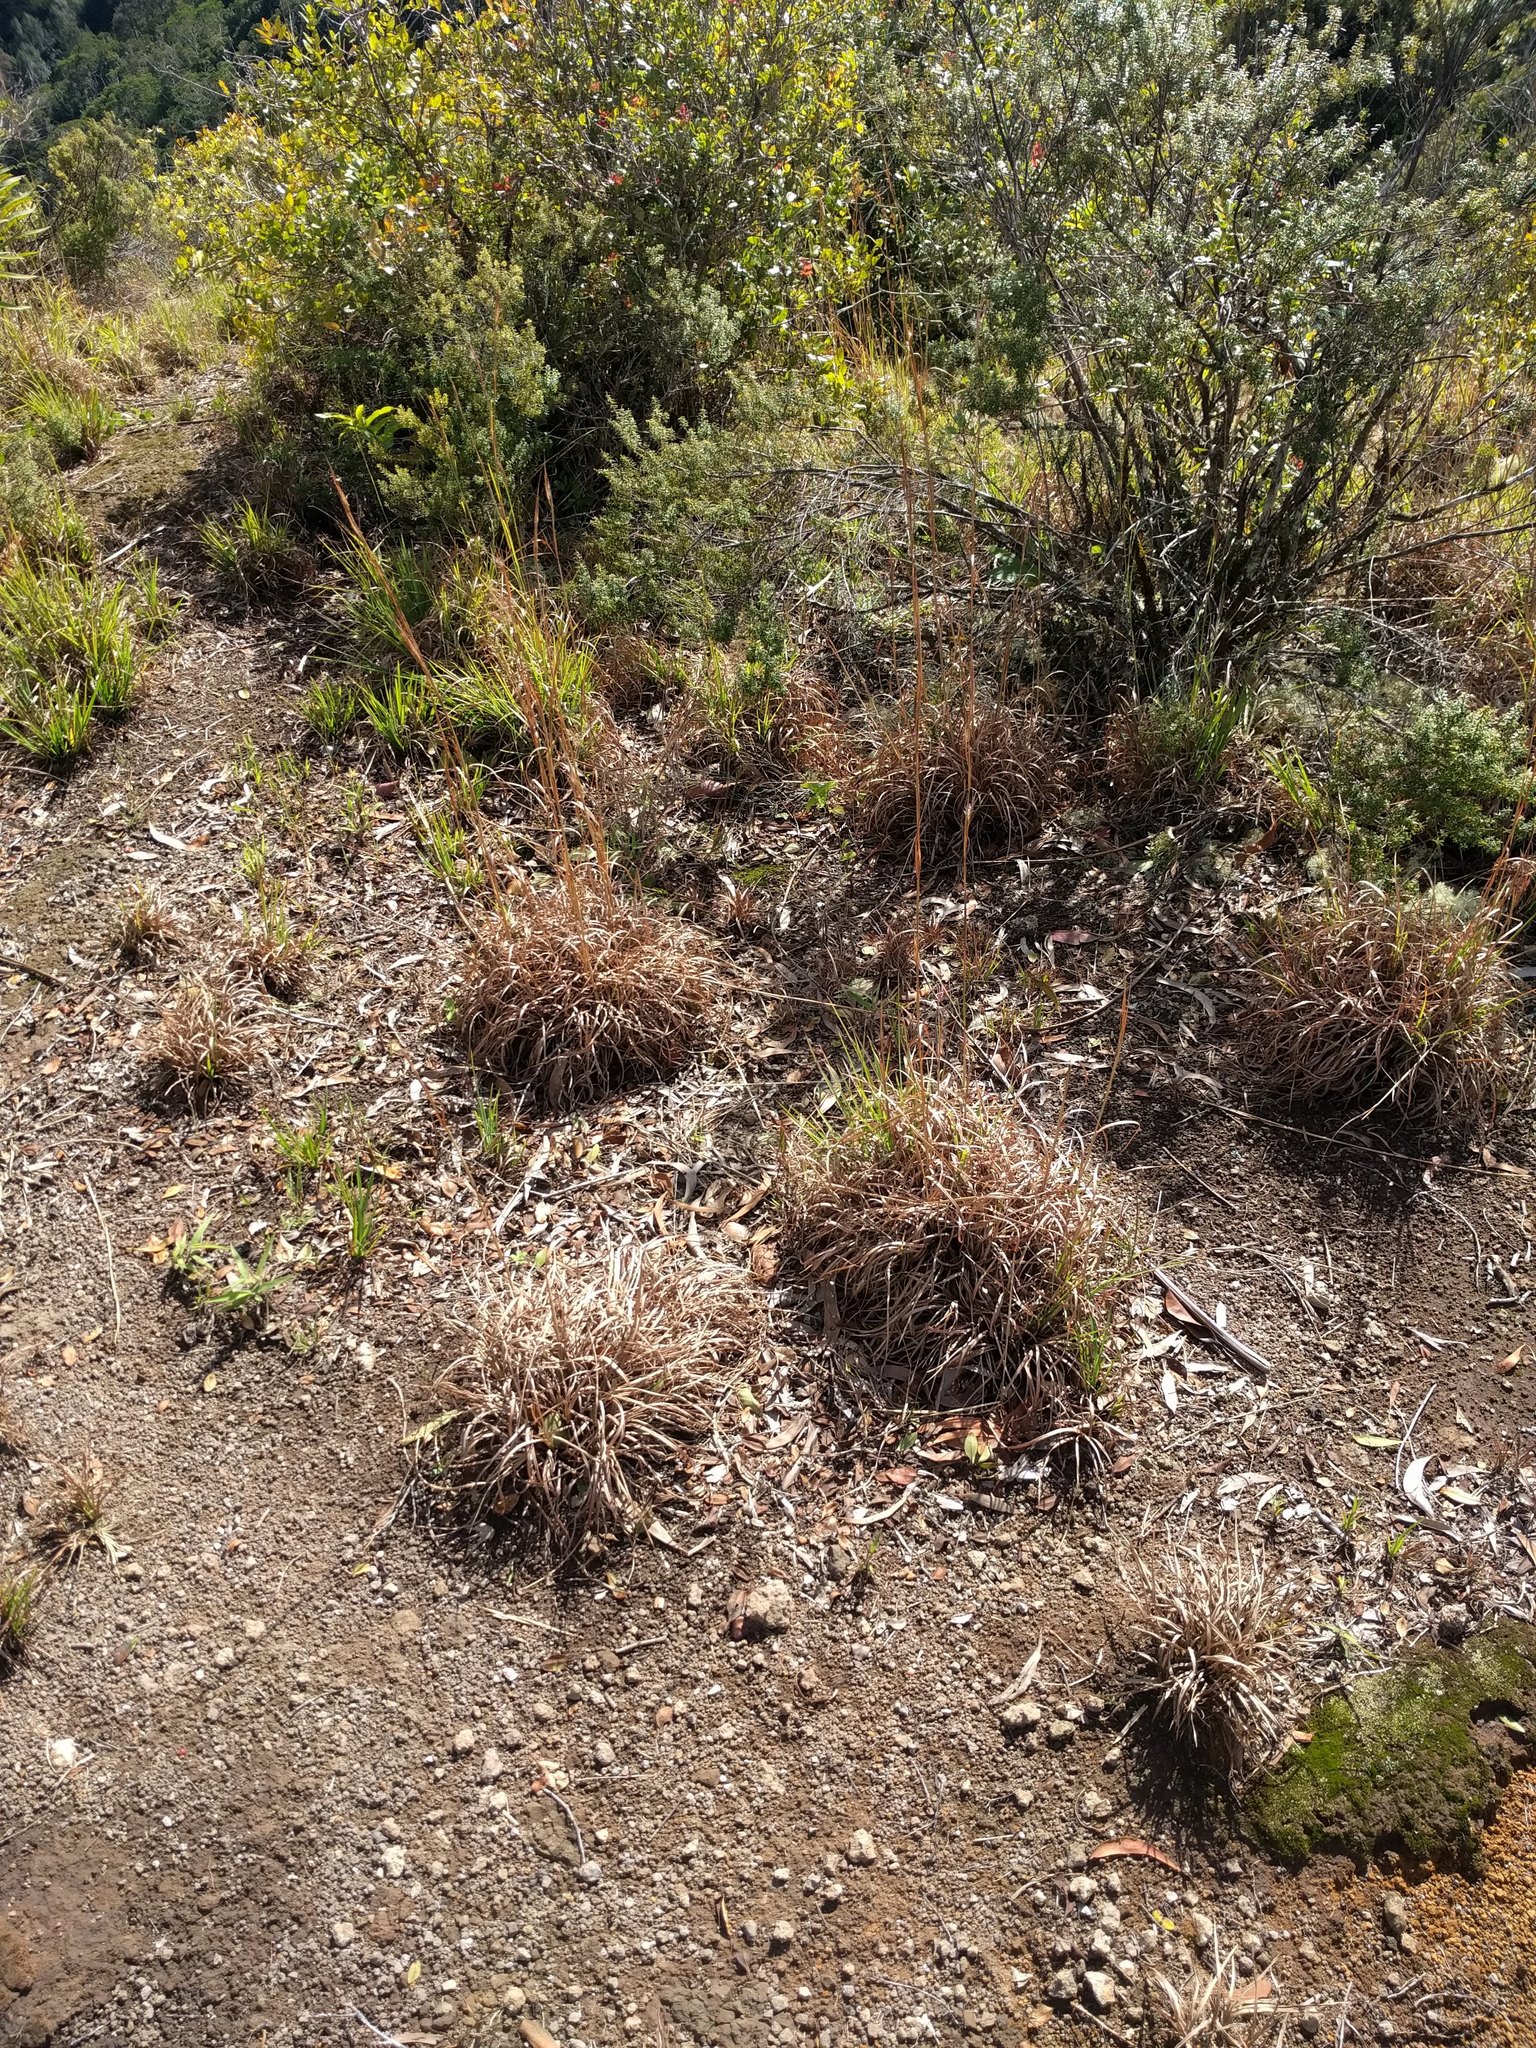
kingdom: Plantae
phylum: Tracheophyta
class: Liliopsida
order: Poales
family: Poaceae
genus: Andropogon
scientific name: Andropogon virginicus
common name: Broomsedge bluestem
